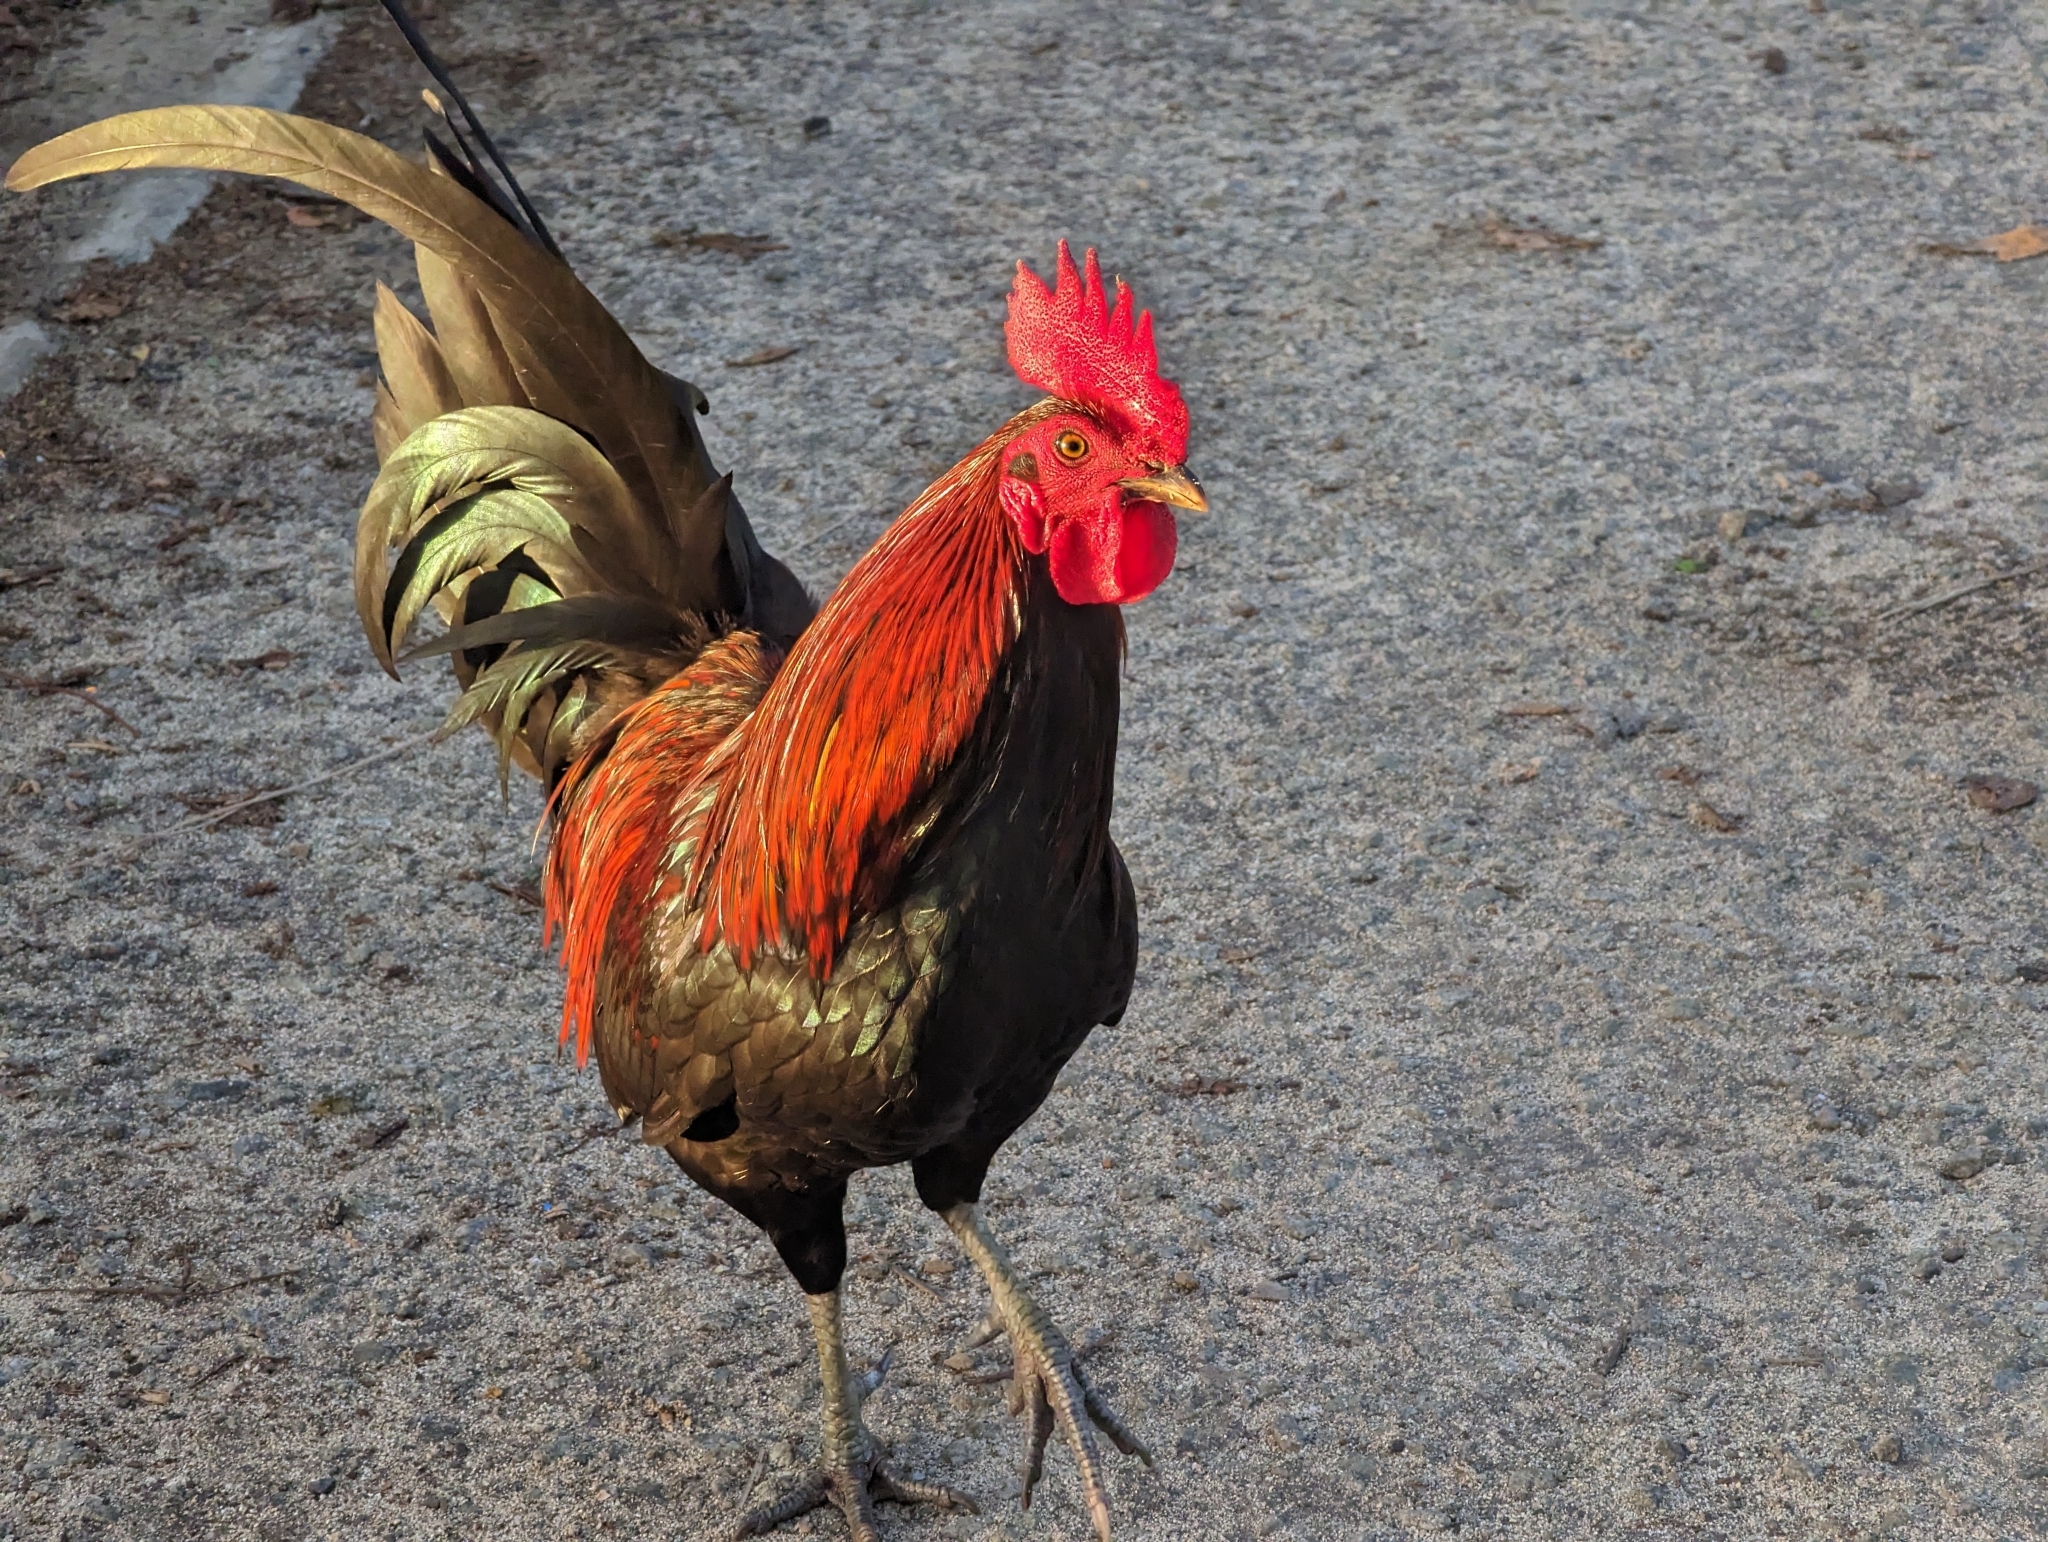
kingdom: Animalia
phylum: Chordata
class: Aves
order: Galliformes
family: Phasianidae
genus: Gallus
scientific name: Gallus gallus
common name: Red junglefowl
